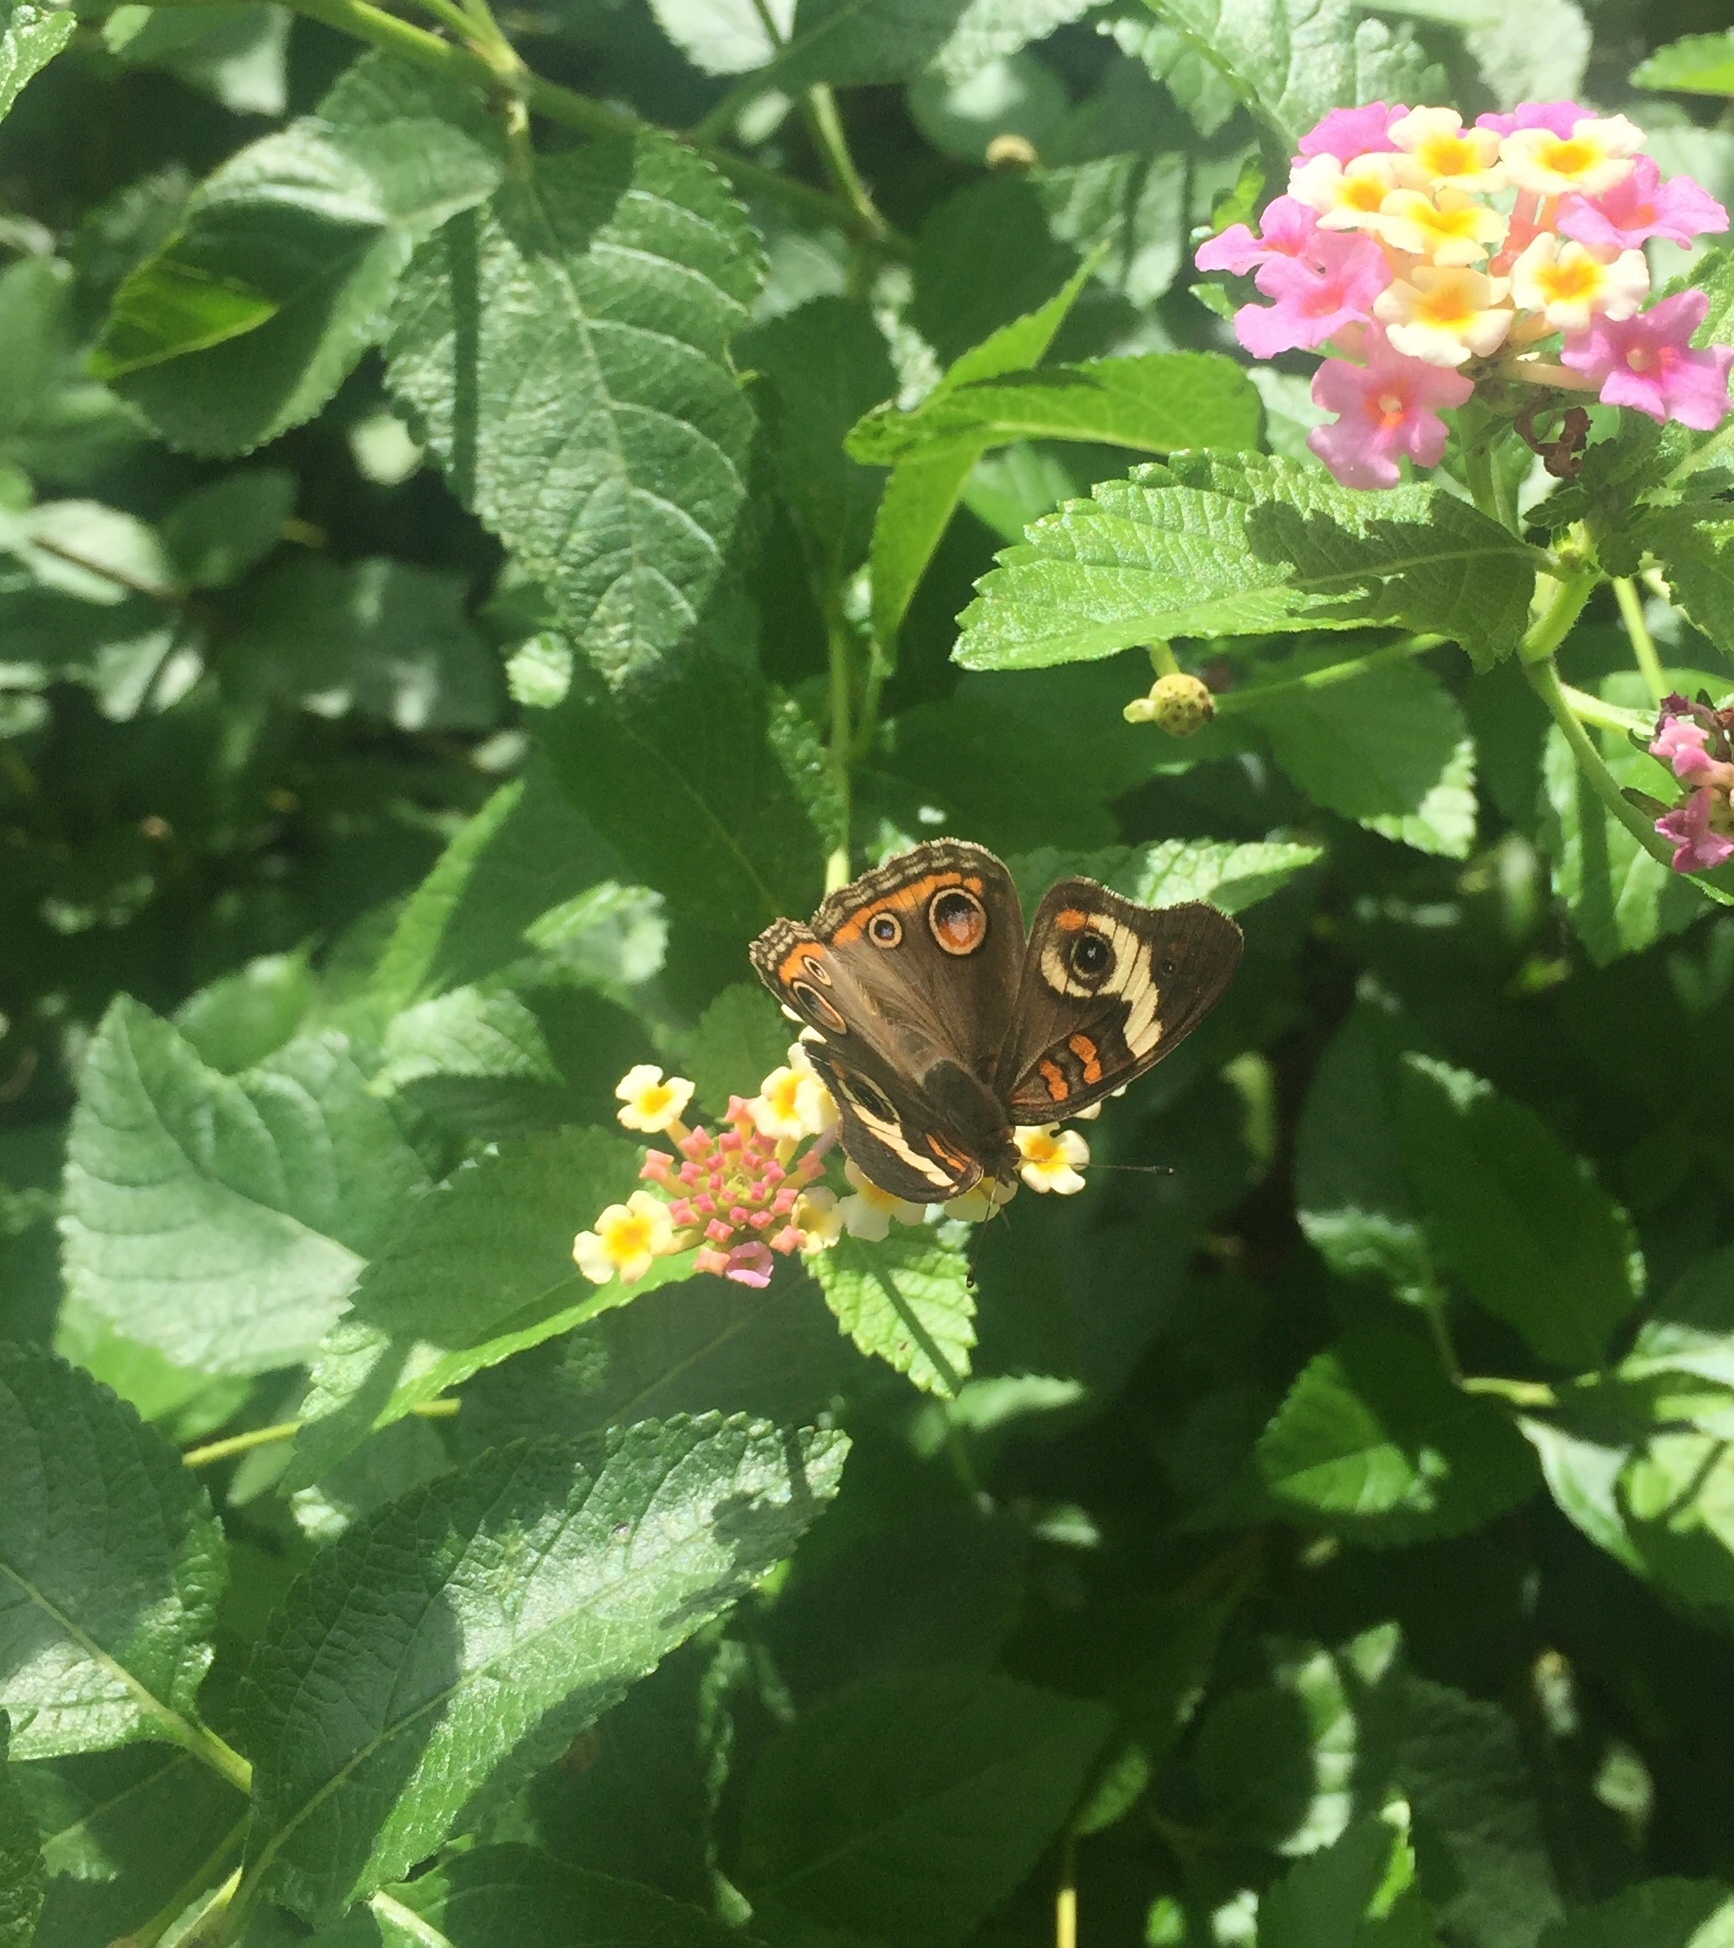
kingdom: Animalia
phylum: Arthropoda
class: Insecta
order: Lepidoptera
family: Nymphalidae
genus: Junonia
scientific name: Junonia coenia
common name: Common buckeye
